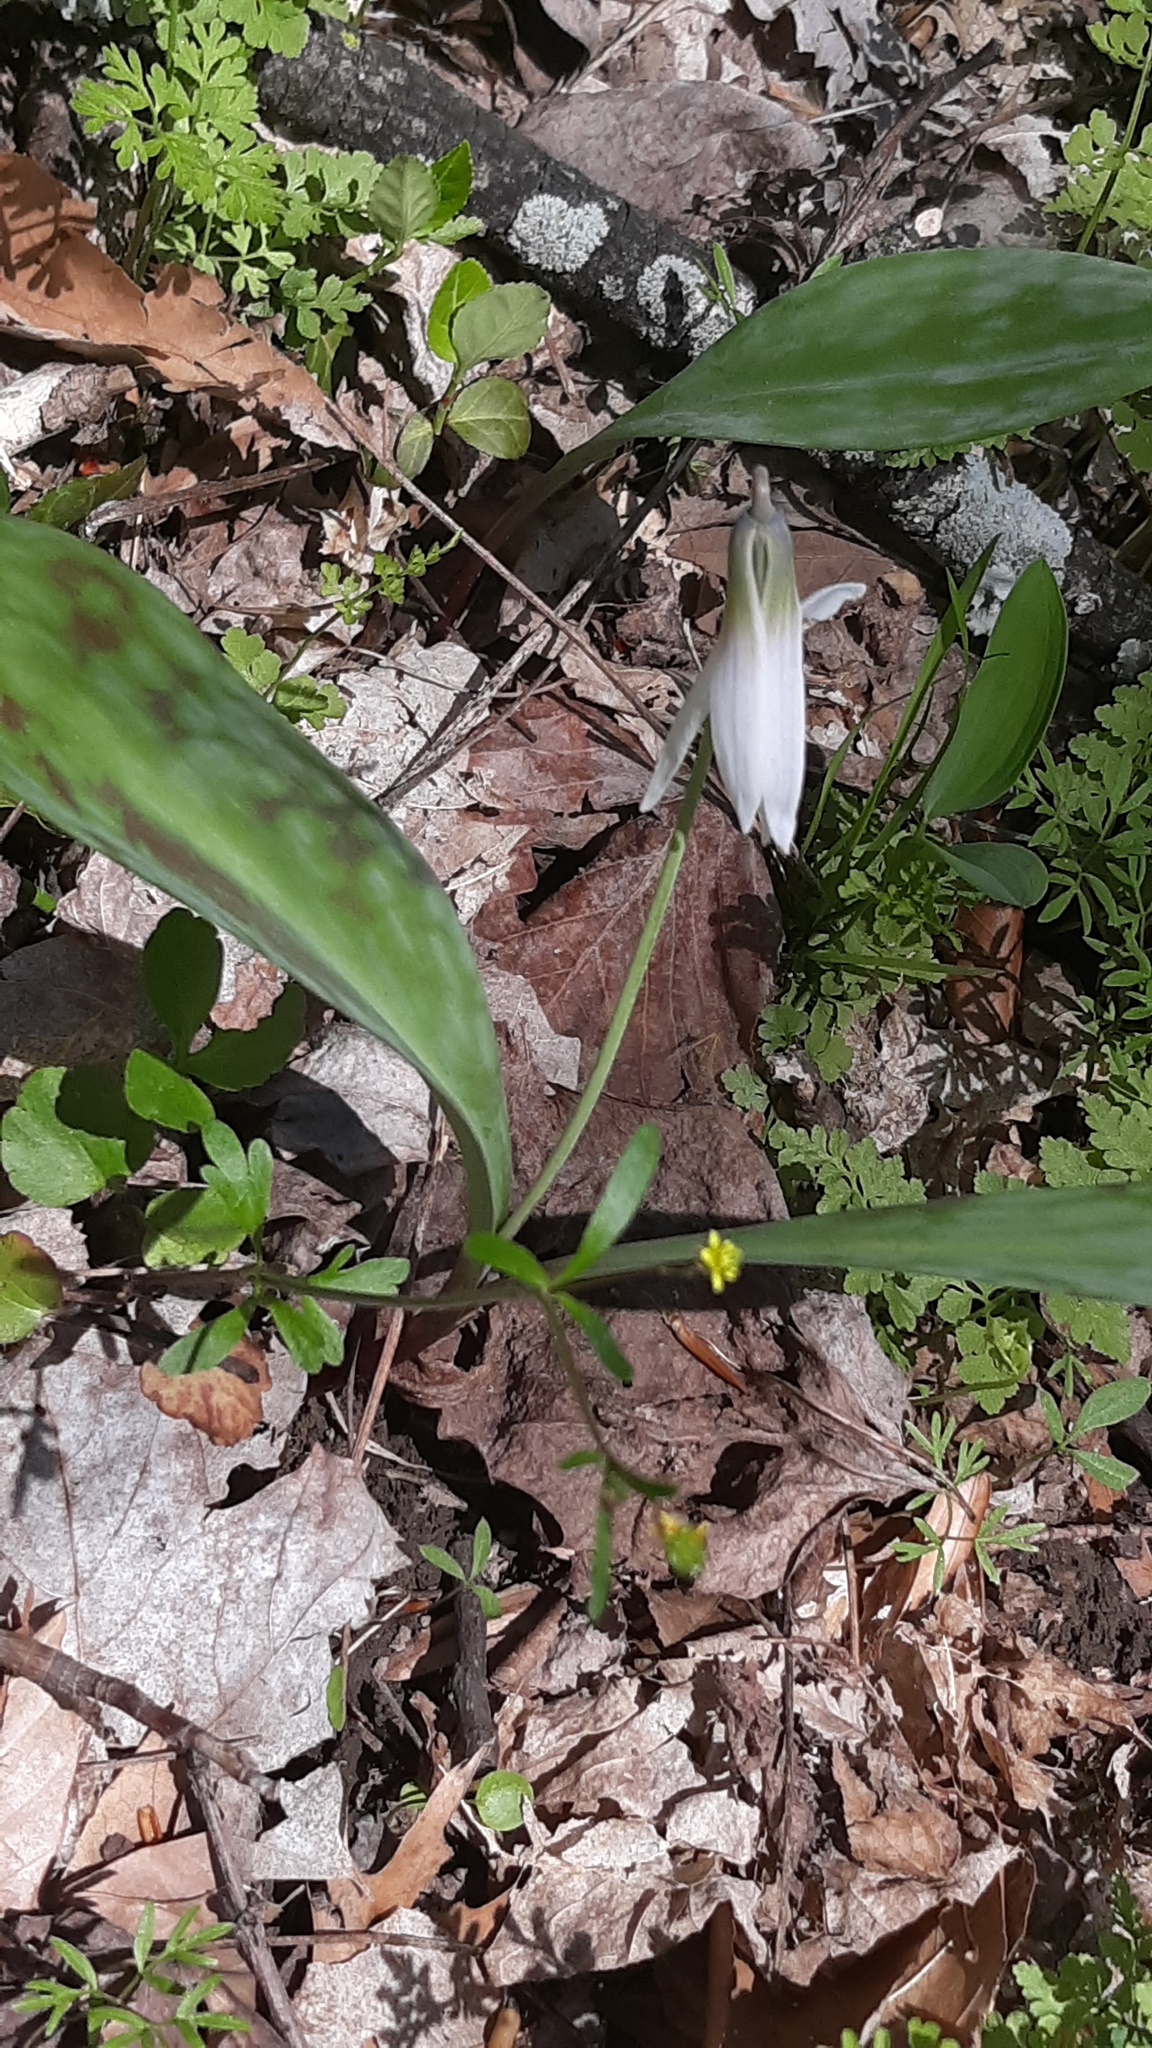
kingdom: Plantae
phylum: Tracheophyta
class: Liliopsida
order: Liliales
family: Liliaceae
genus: Erythronium
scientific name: Erythronium albidum
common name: White trout-lily
